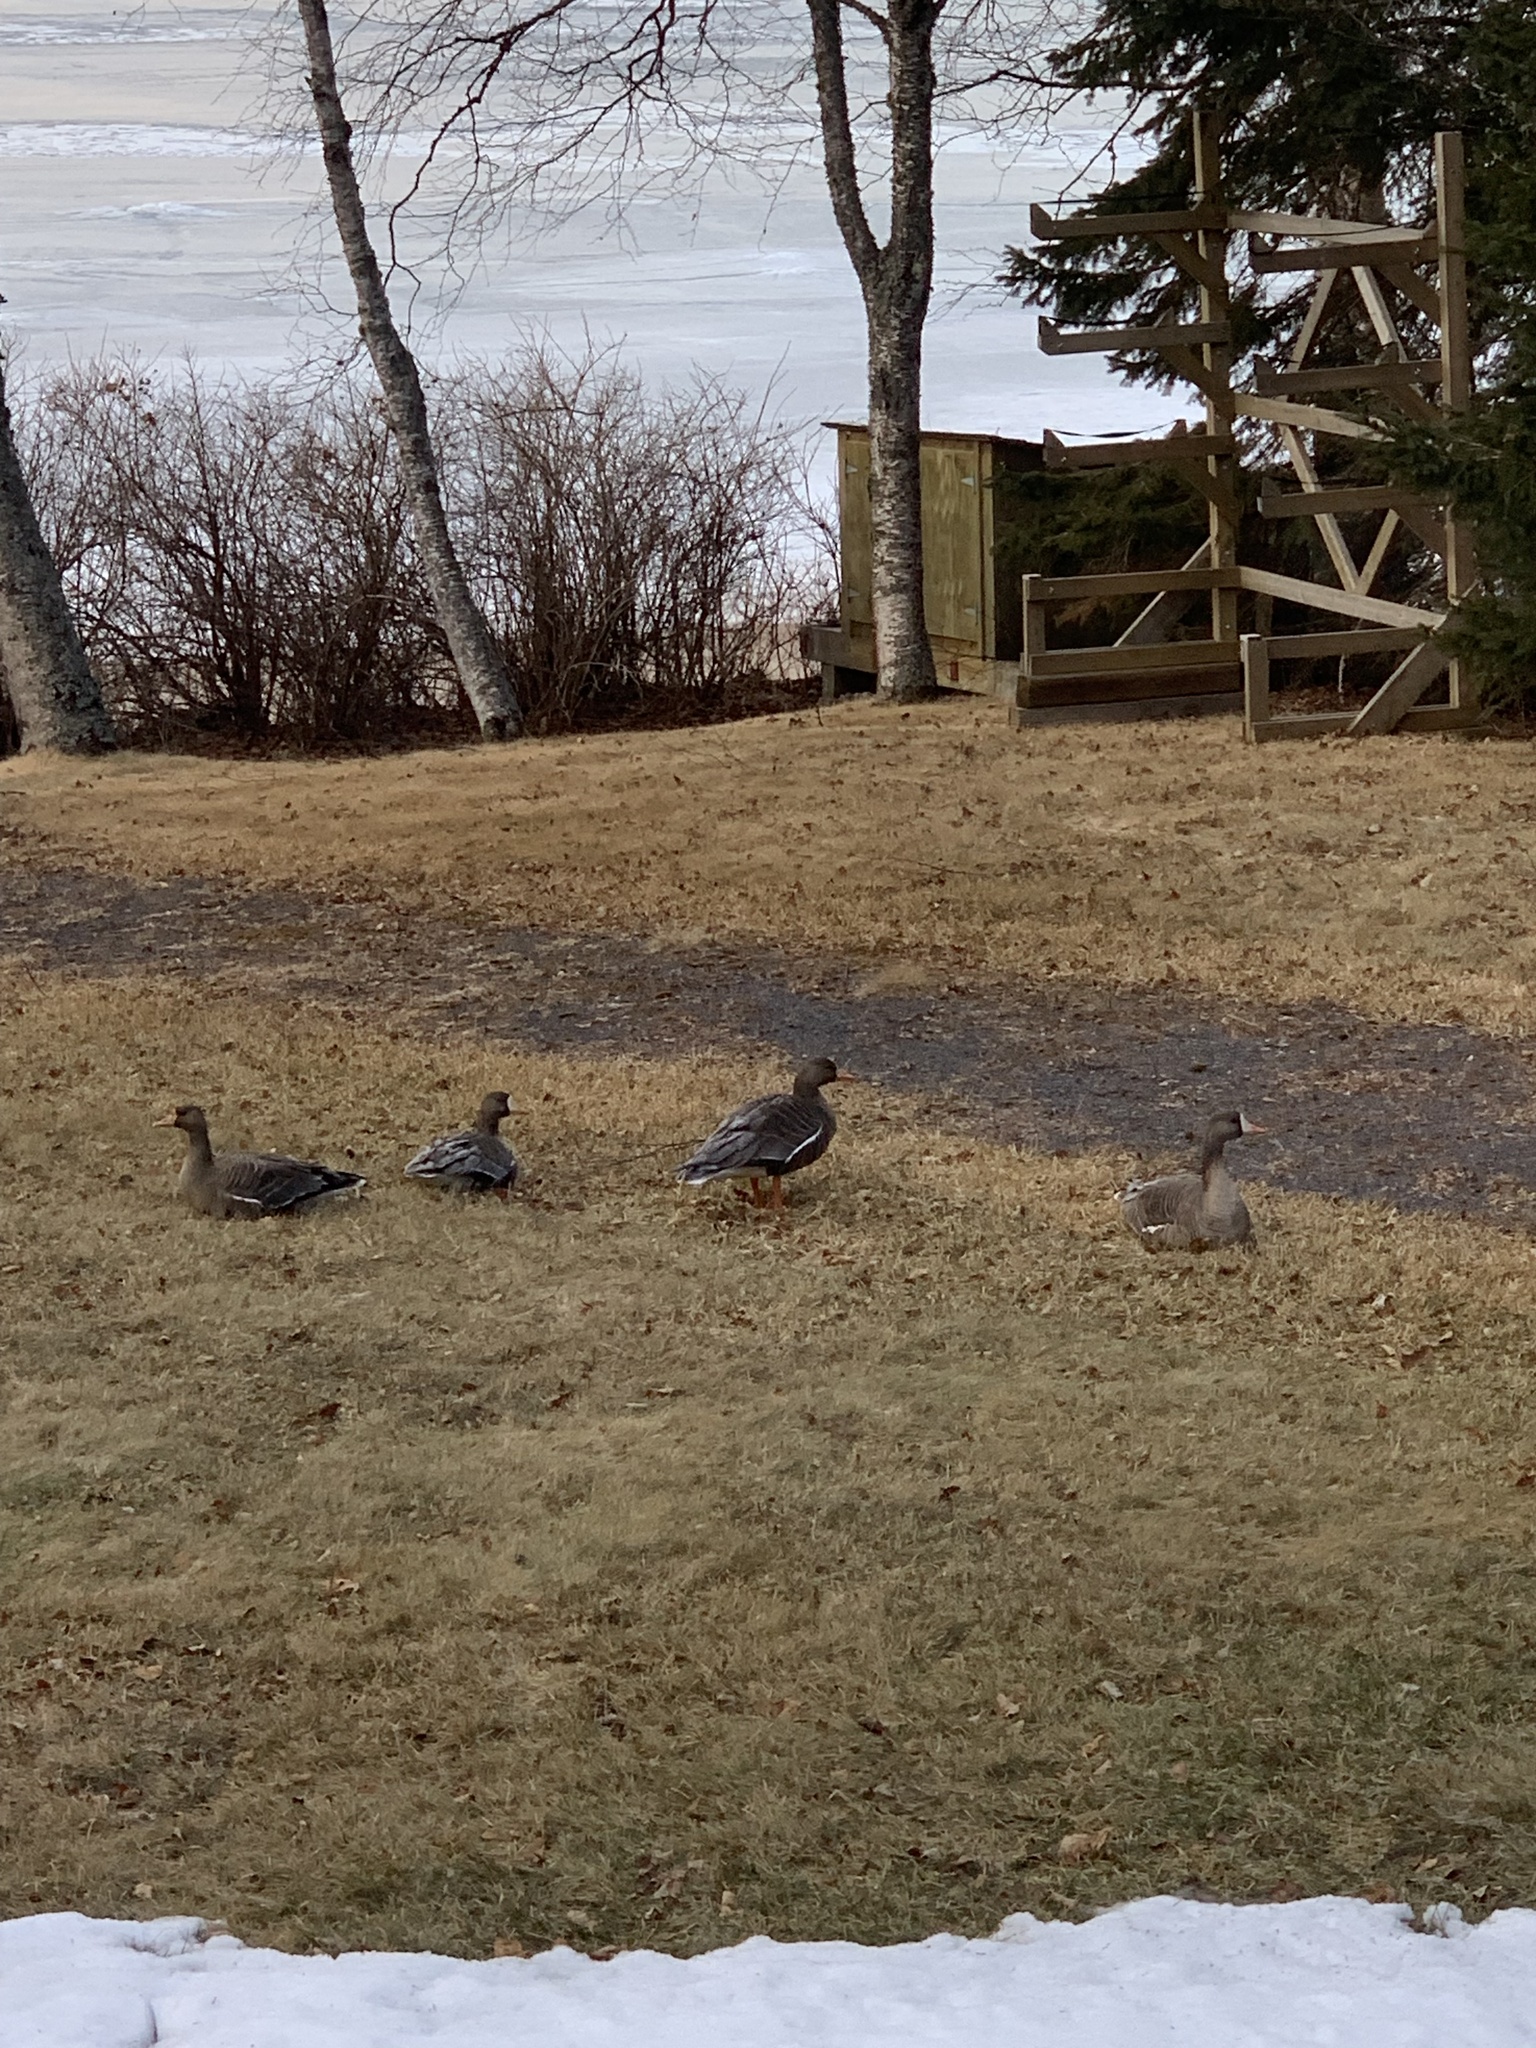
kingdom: Animalia
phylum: Chordata
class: Aves
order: Anseriformes
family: Anatidae
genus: Anser
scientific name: Anser albifrons
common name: Greater white-fronted goose
